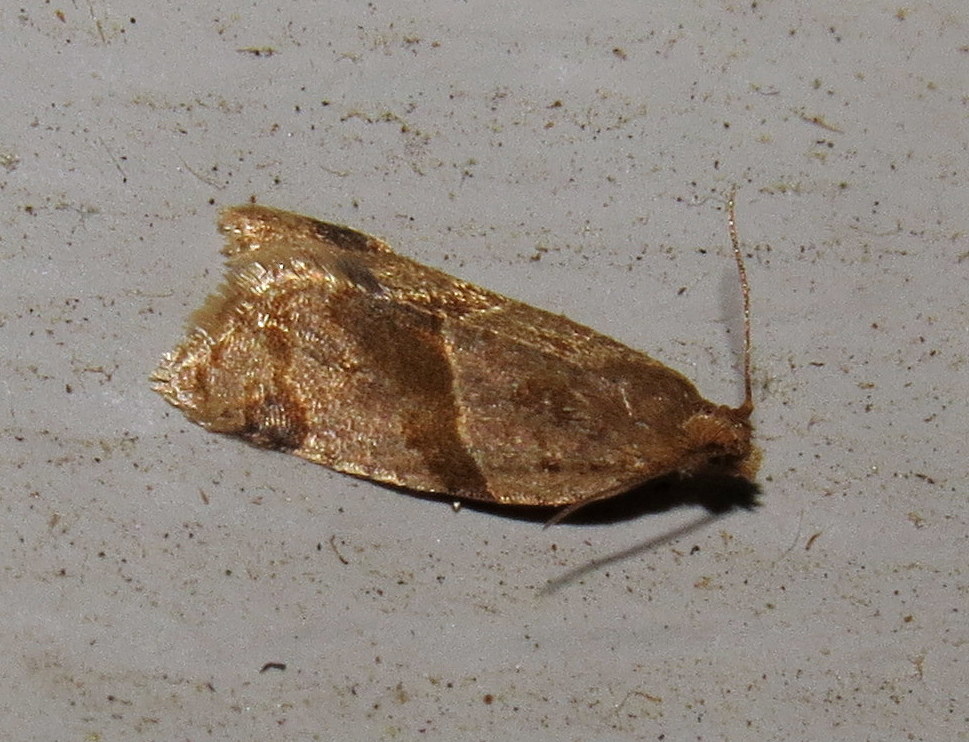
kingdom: Animalia
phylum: Arthropoda
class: Insecta
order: Lepidoptera
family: Tortricidae
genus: Clepsis
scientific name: Clepsis peritana
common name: Garden tortrix
